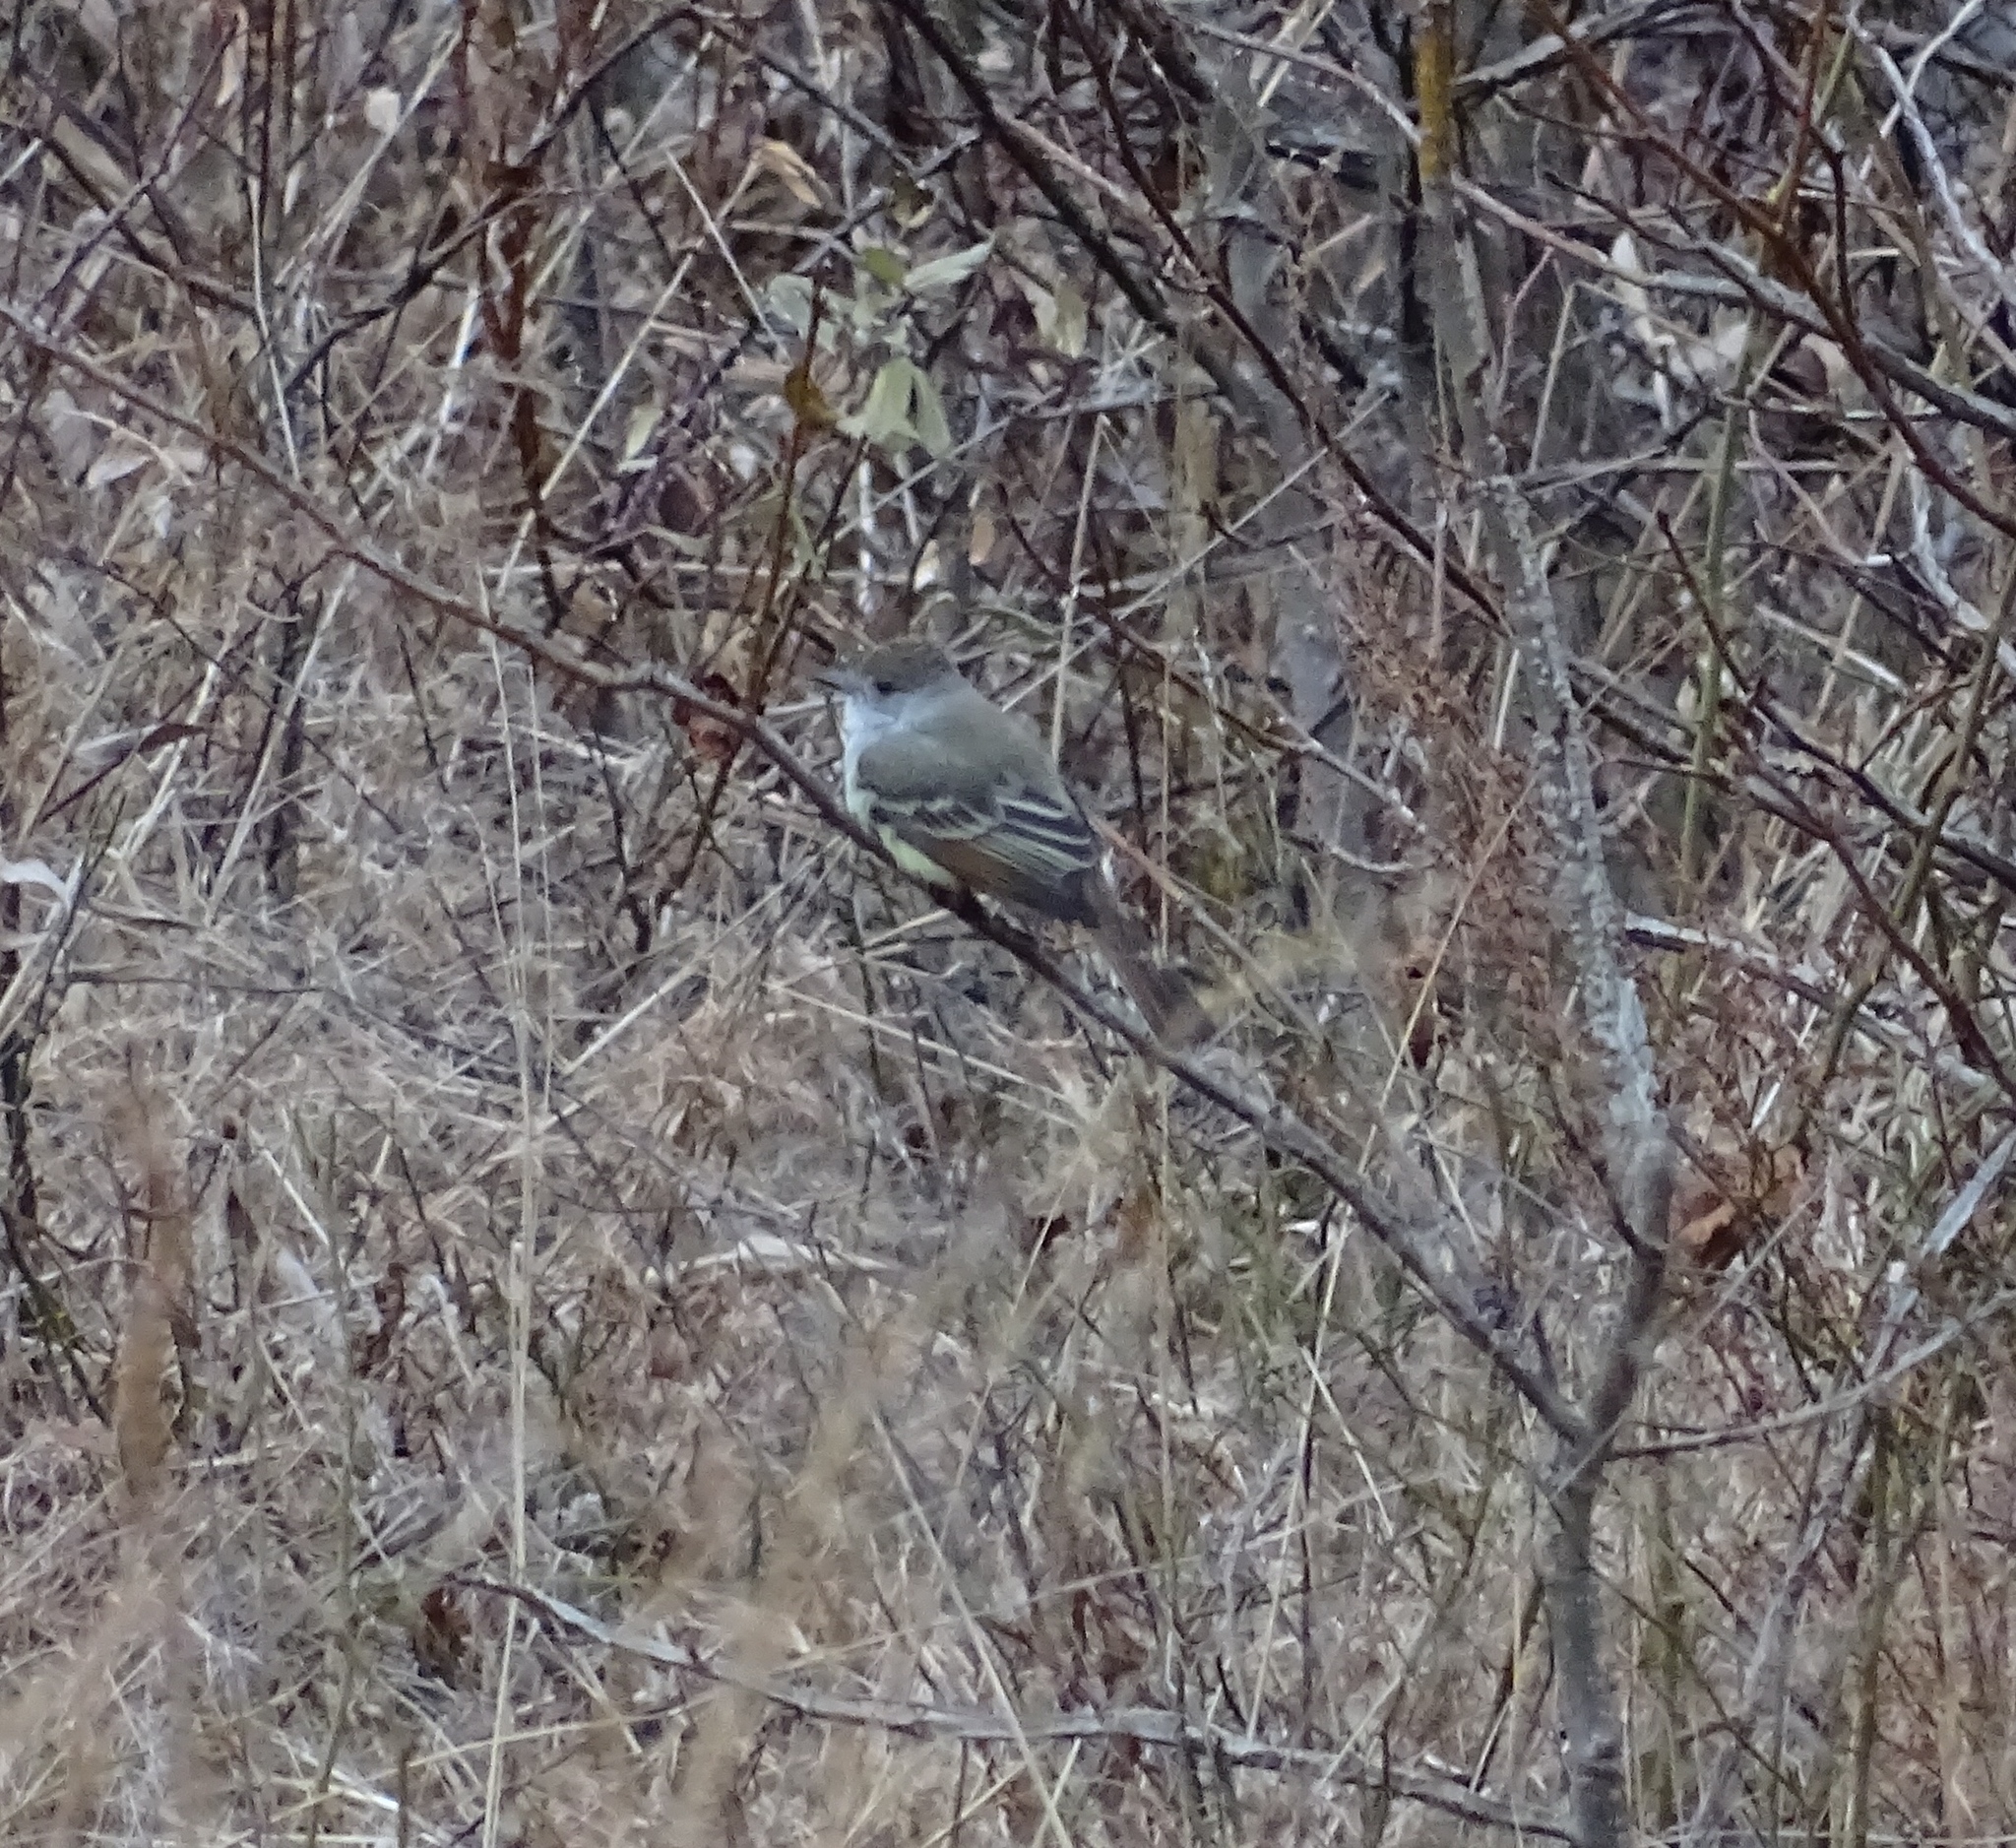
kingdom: Animalia
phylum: Chordata
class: Aves
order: Passeriformes
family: Tyrannidae
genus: Myiarchus
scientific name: Myiarchus cinerascens
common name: Ash-throated flycatcher
